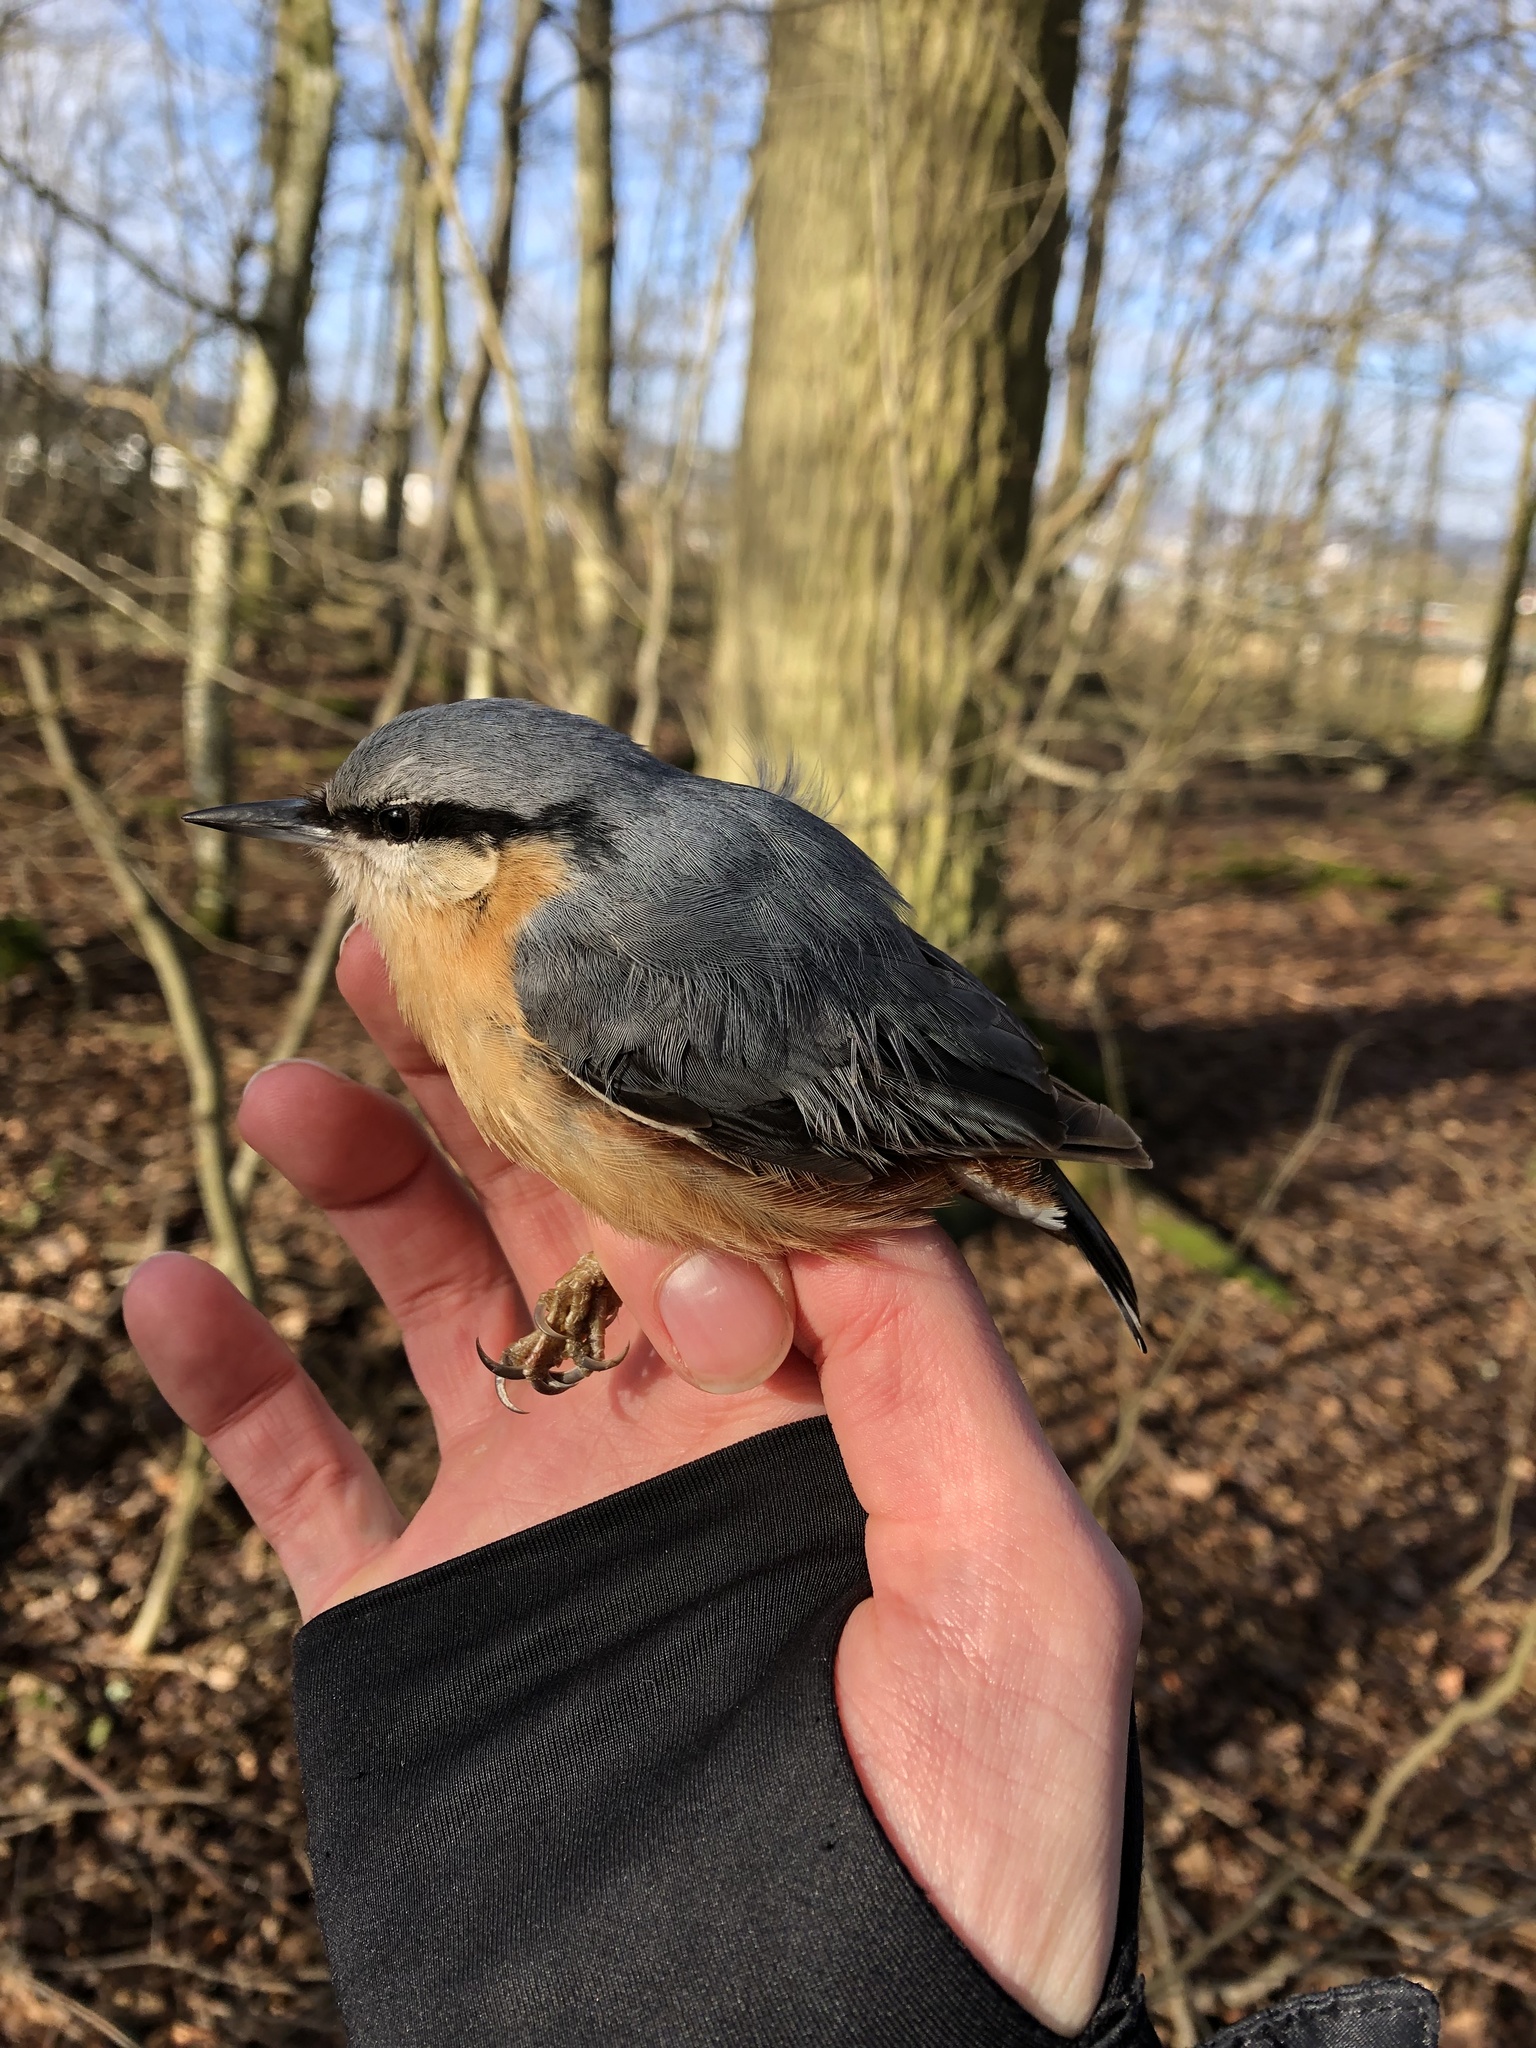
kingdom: Animalia
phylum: Chordata
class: Aves
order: Passeriformes
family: Sittidae
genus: Sitta
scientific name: Sitta europaea
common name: Eurasian nuthatch
